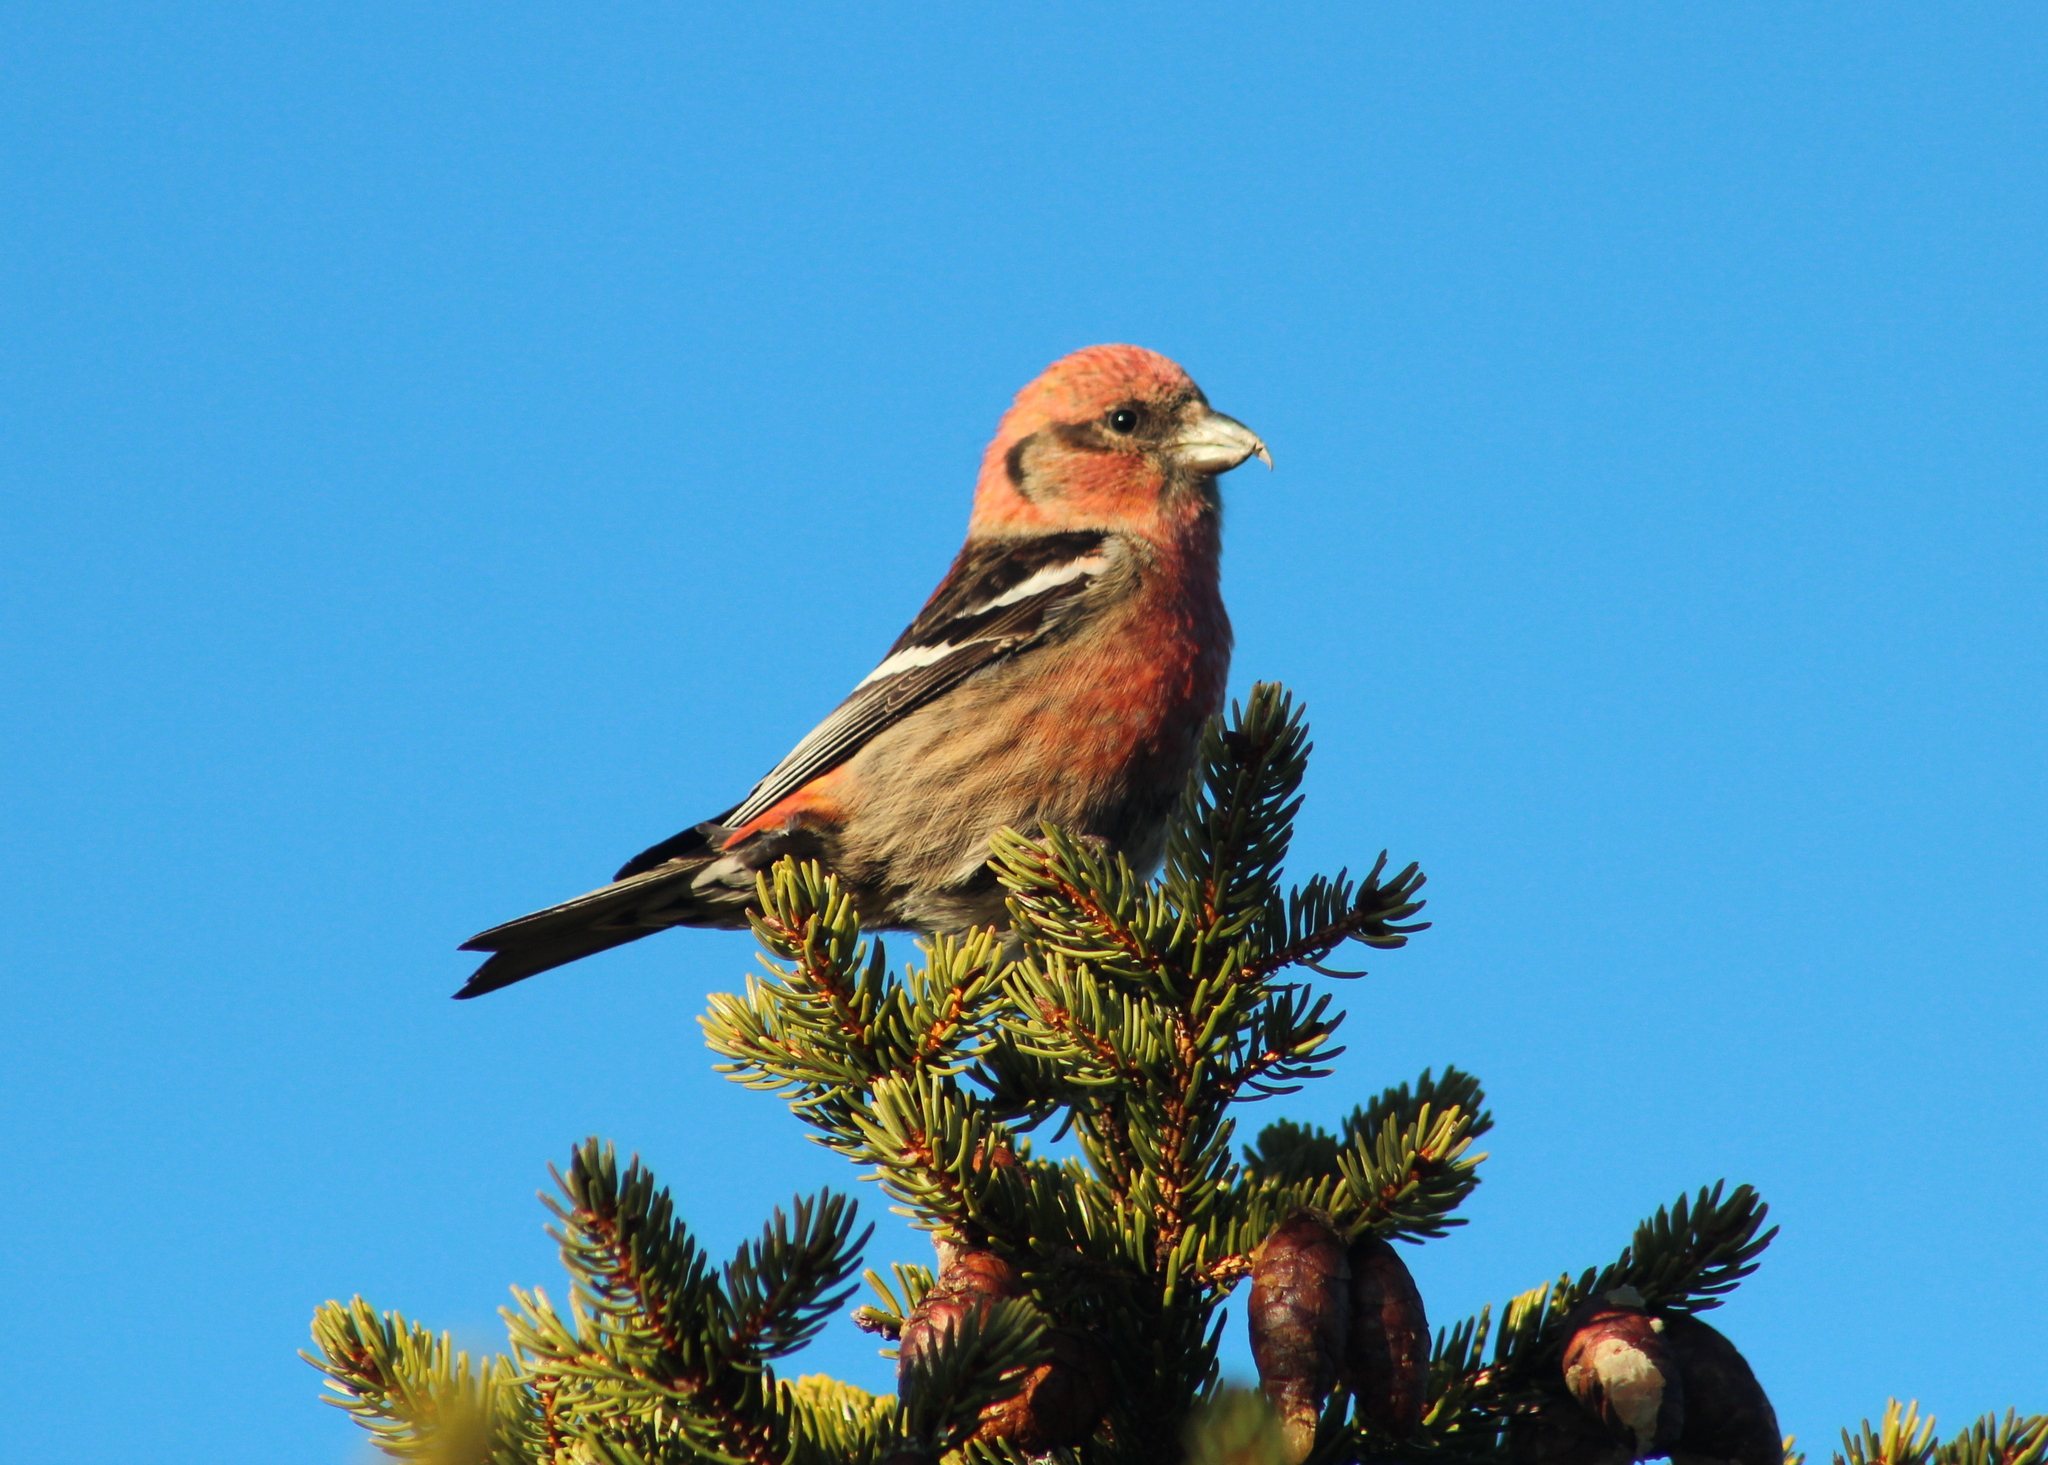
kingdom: Animalia
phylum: Chordata
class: Aves
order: Passeriformes
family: Fringillidae
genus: Loxia
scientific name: Loxia leucoptera
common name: Two-barred crossbill
